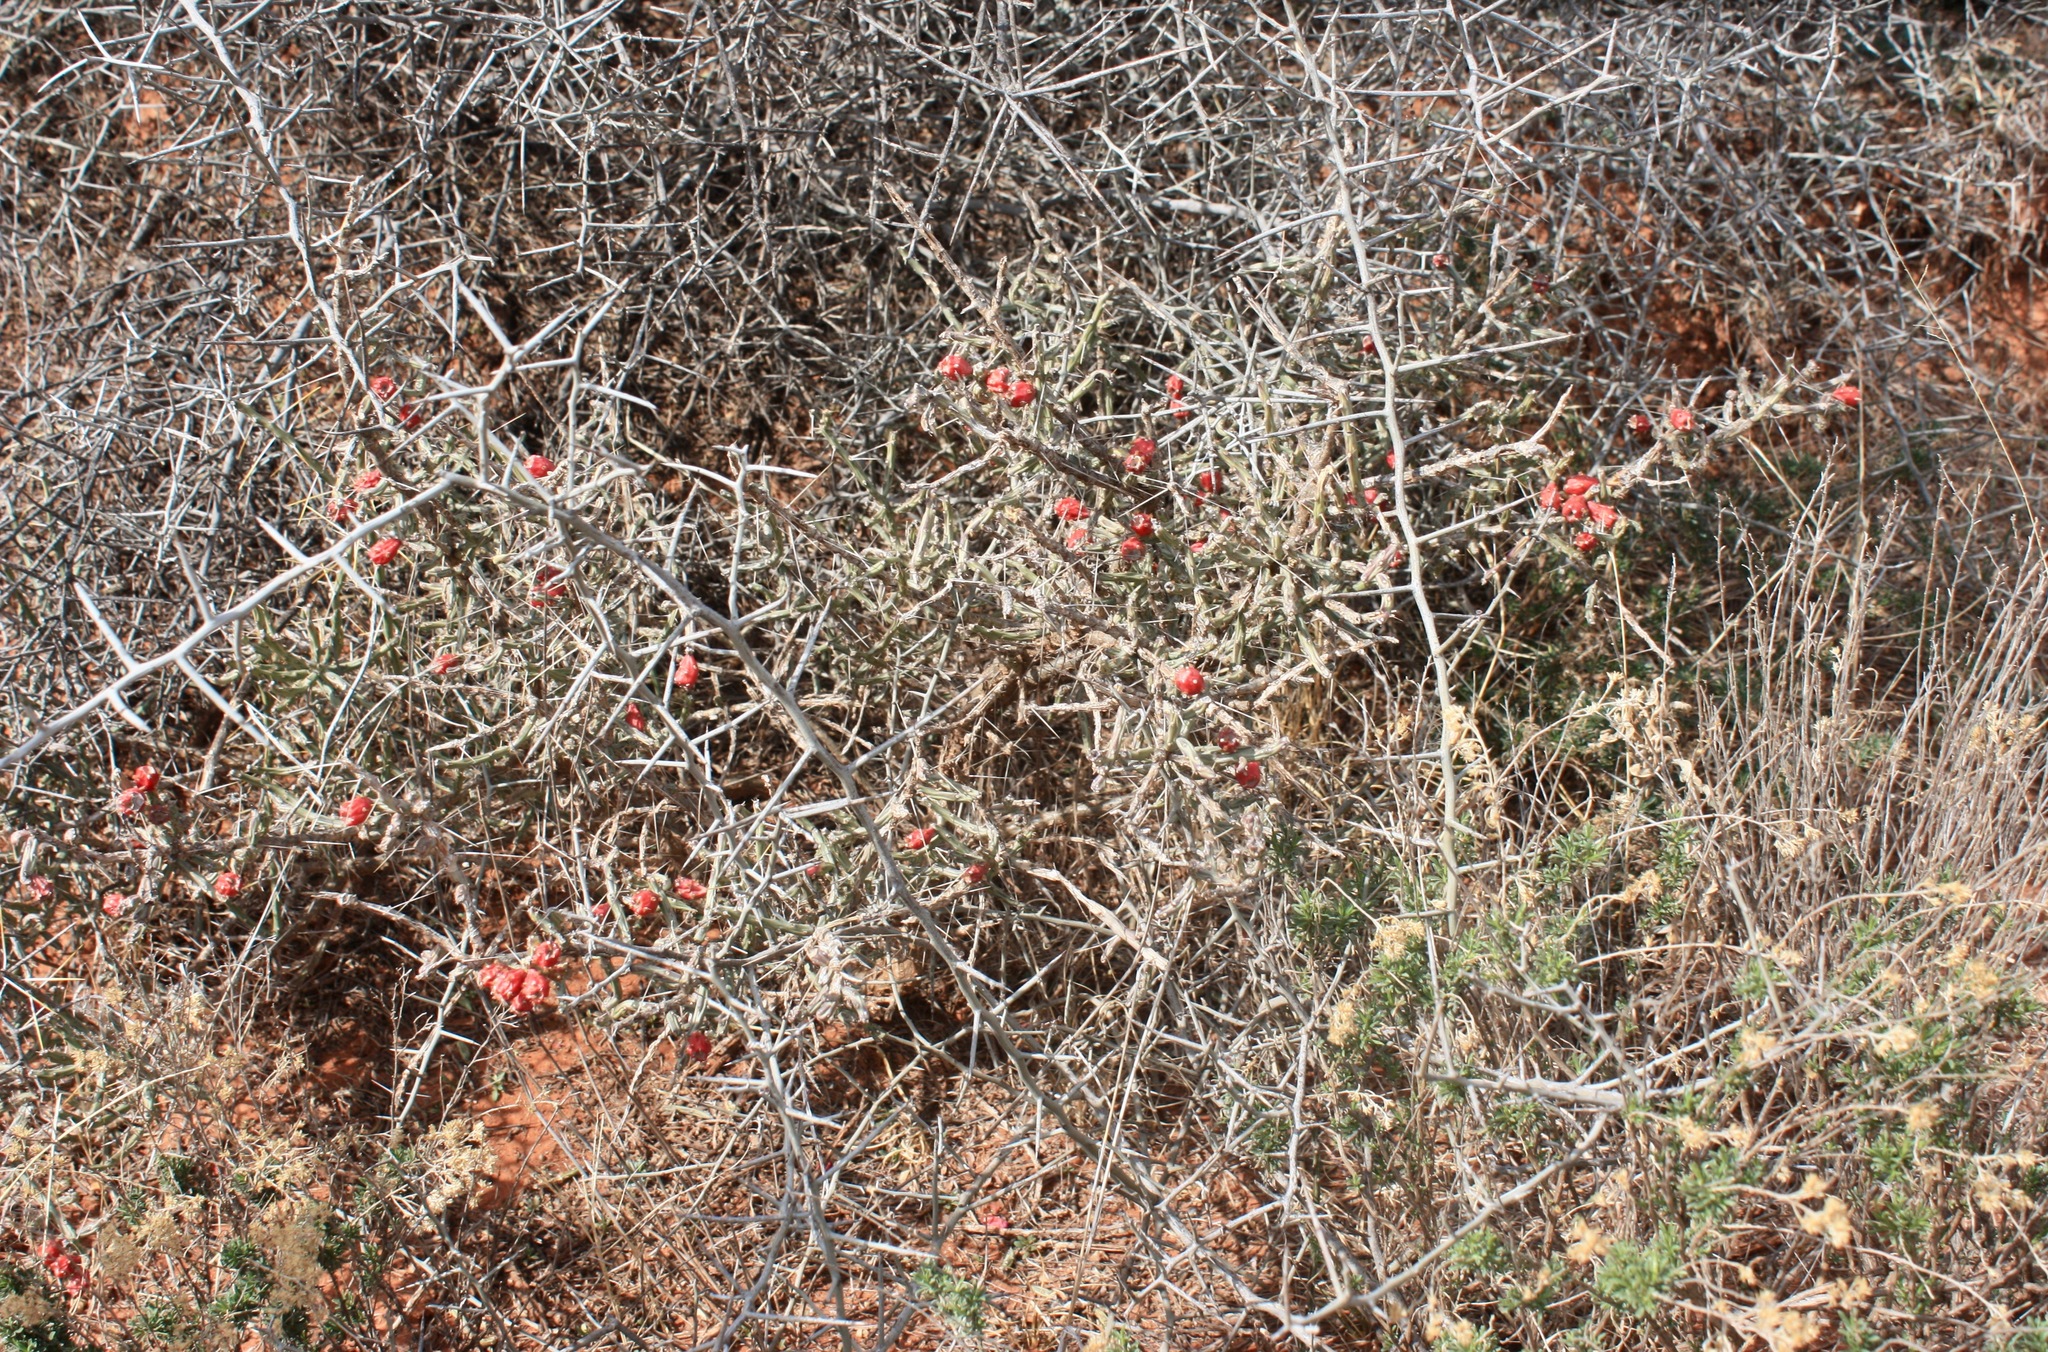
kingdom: Plantae
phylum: Tracheophyta
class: Magnoliopsida
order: Caryophyllales
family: Cactaceae
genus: Cylindropuntia
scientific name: Cylindropuntia leptocaulis
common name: Christmas cactus
